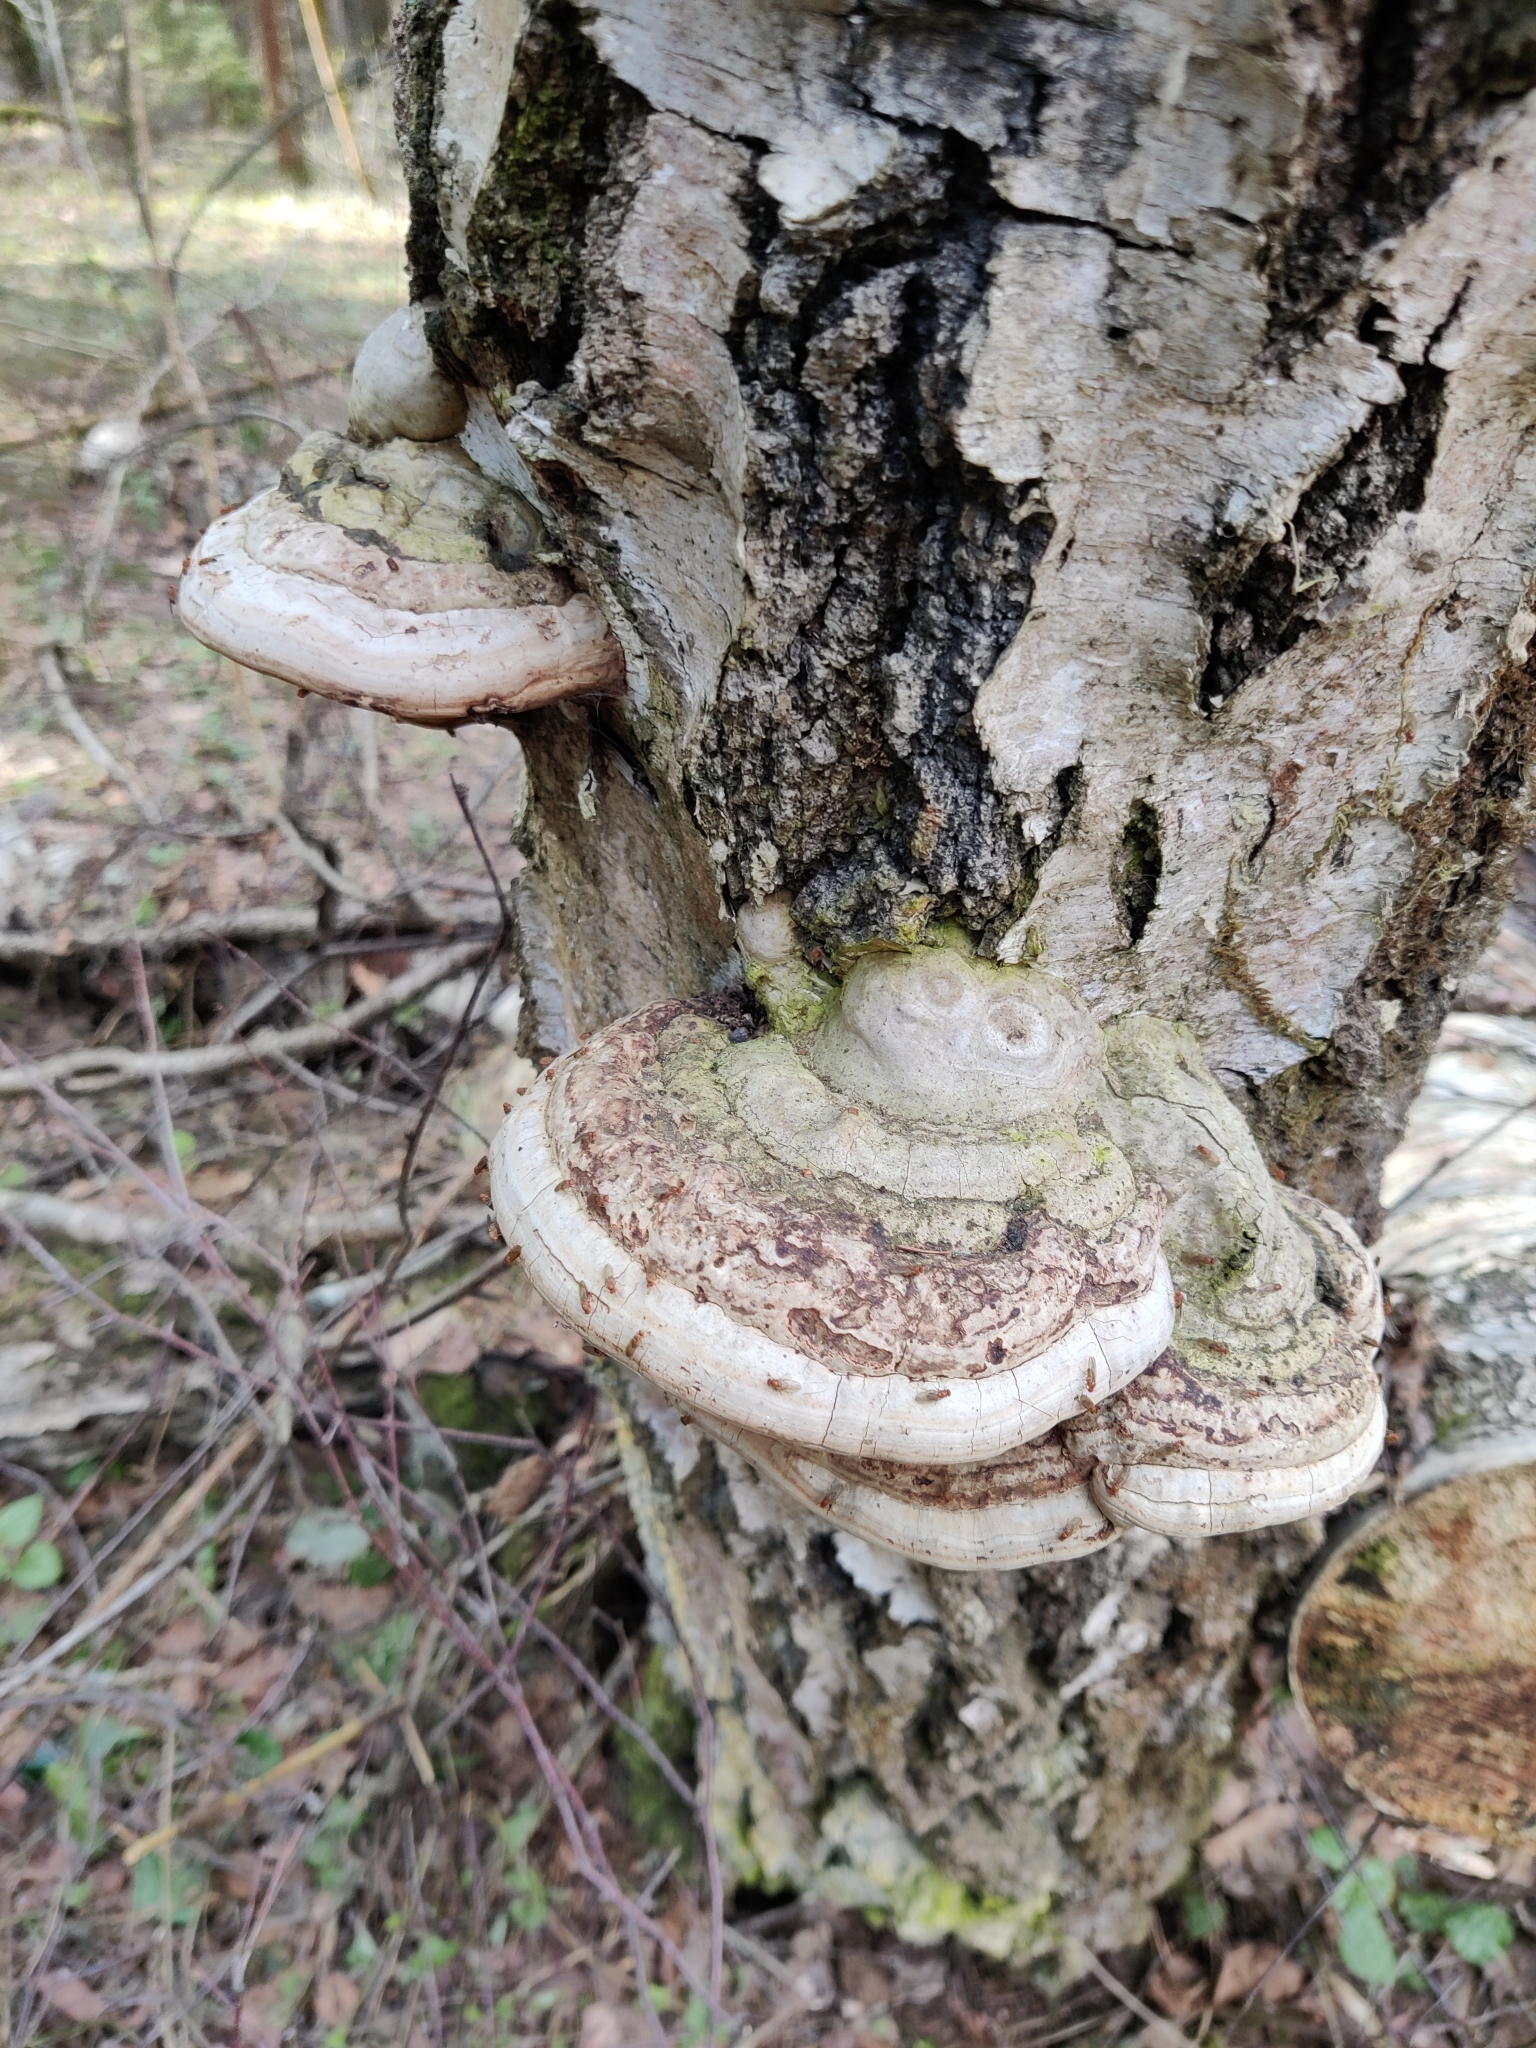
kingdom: Fungi
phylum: Basidiomycota
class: Agaricomycetes
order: Polyporales
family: Polyporaceae
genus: Fomes
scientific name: Fomes fomentarius
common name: Hoof fungus
